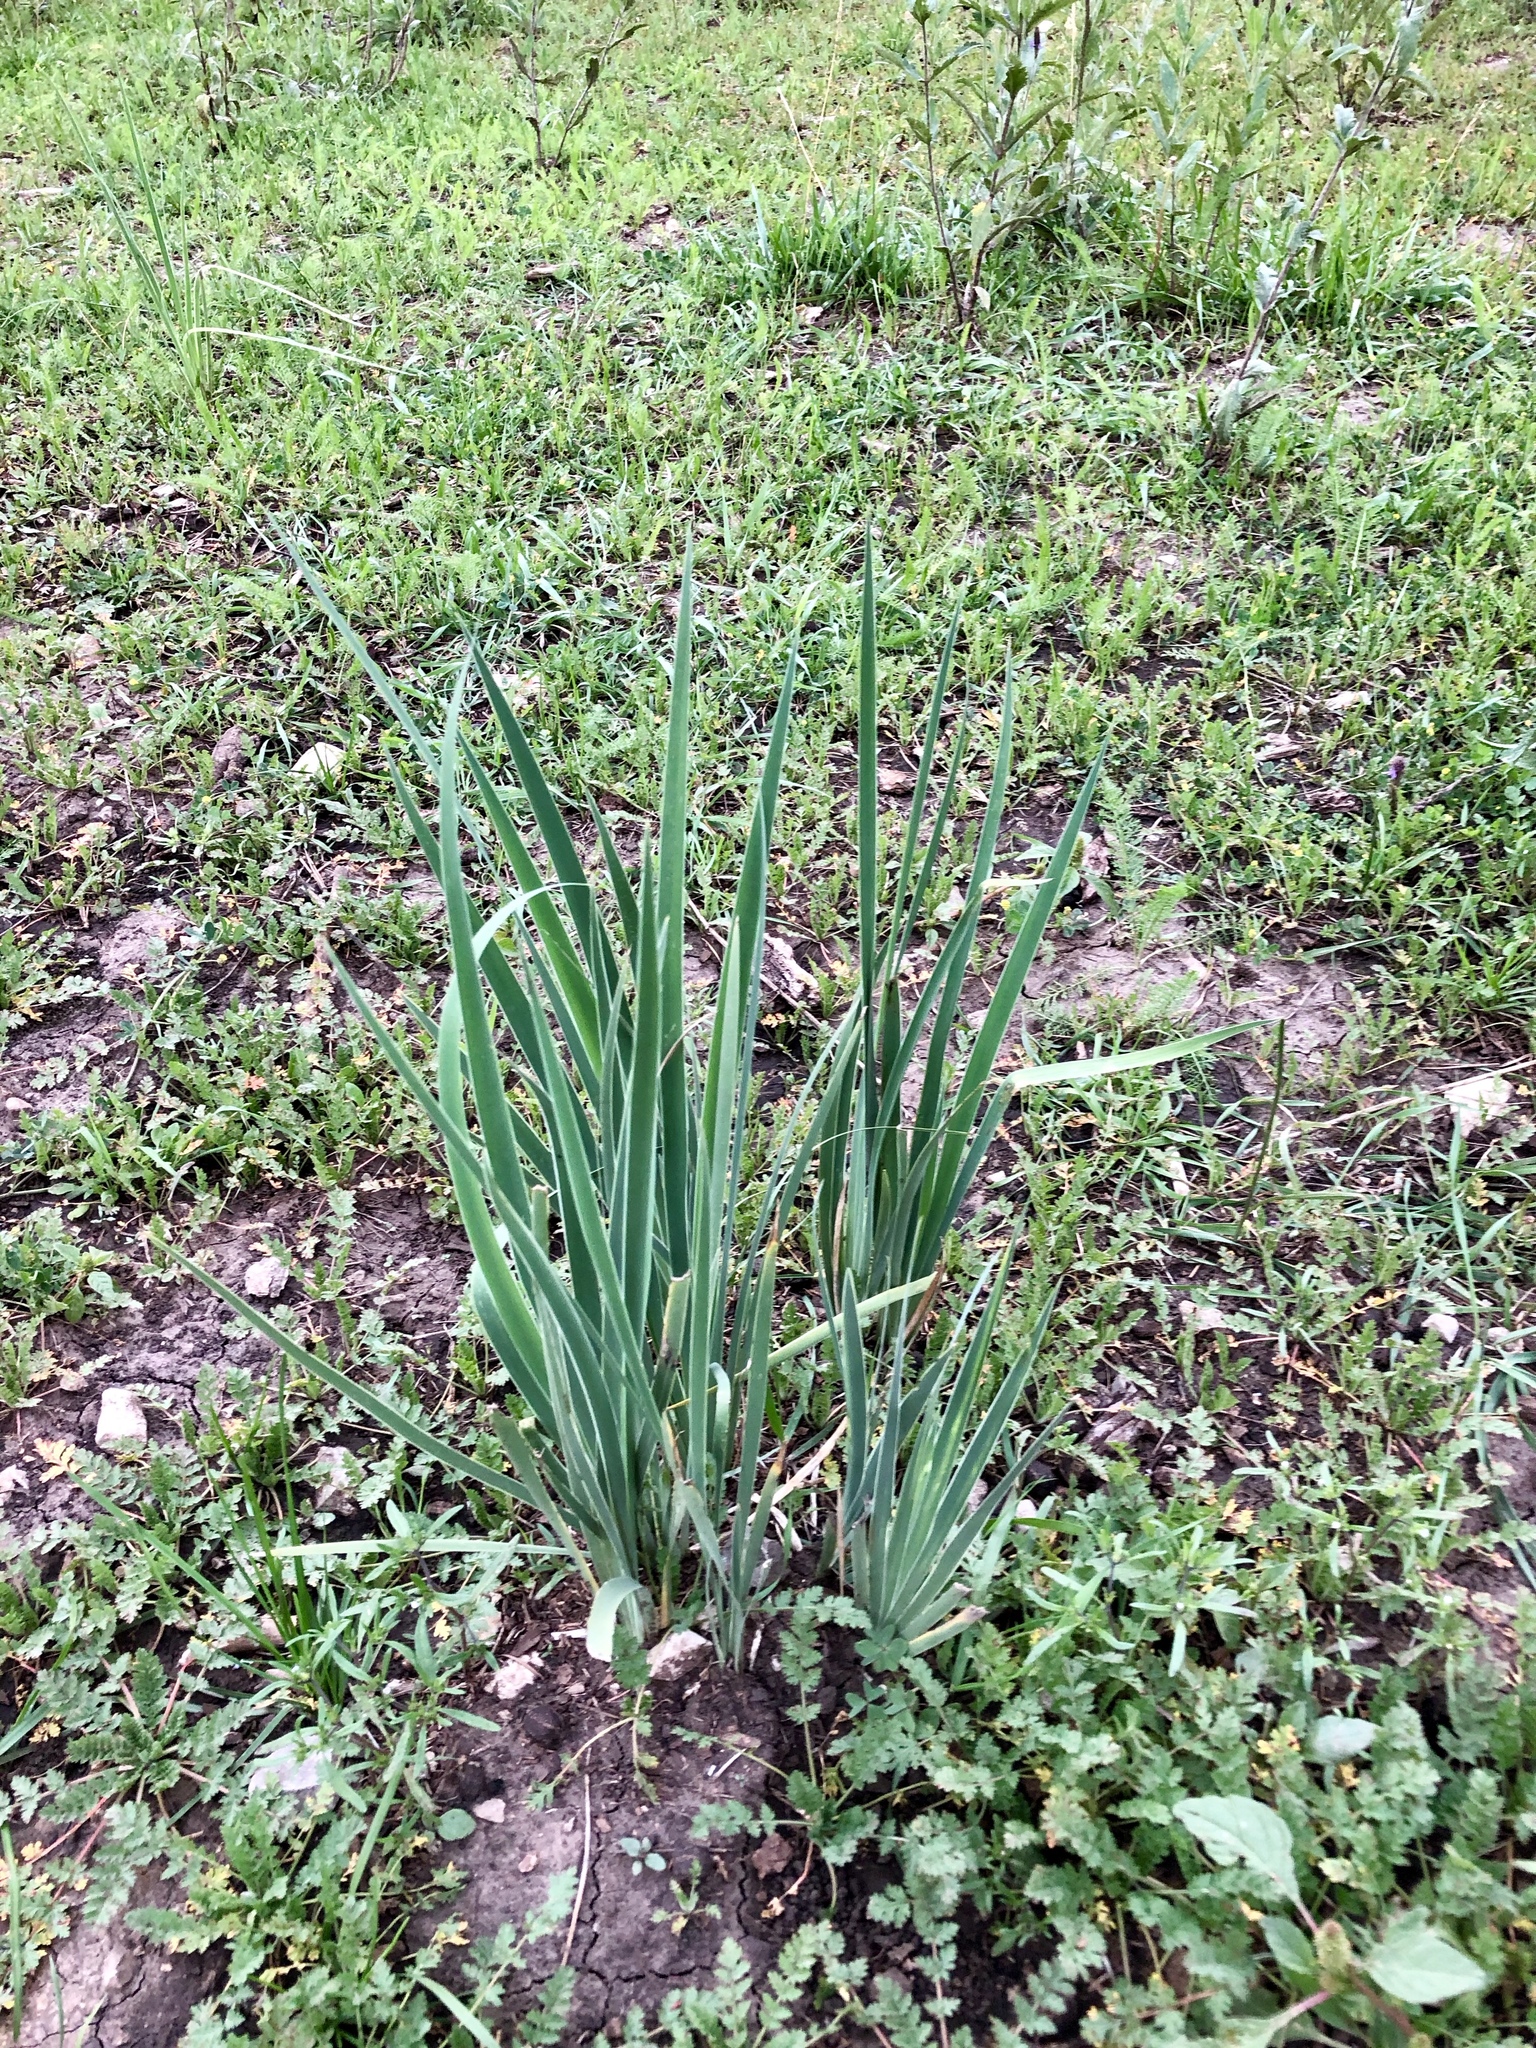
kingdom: Plantae
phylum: Tracheophyta
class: Liliopsida
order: Asparagales
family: Iridaceae
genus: Iris
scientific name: Iris missouriensis
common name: Rocky mountain iris
